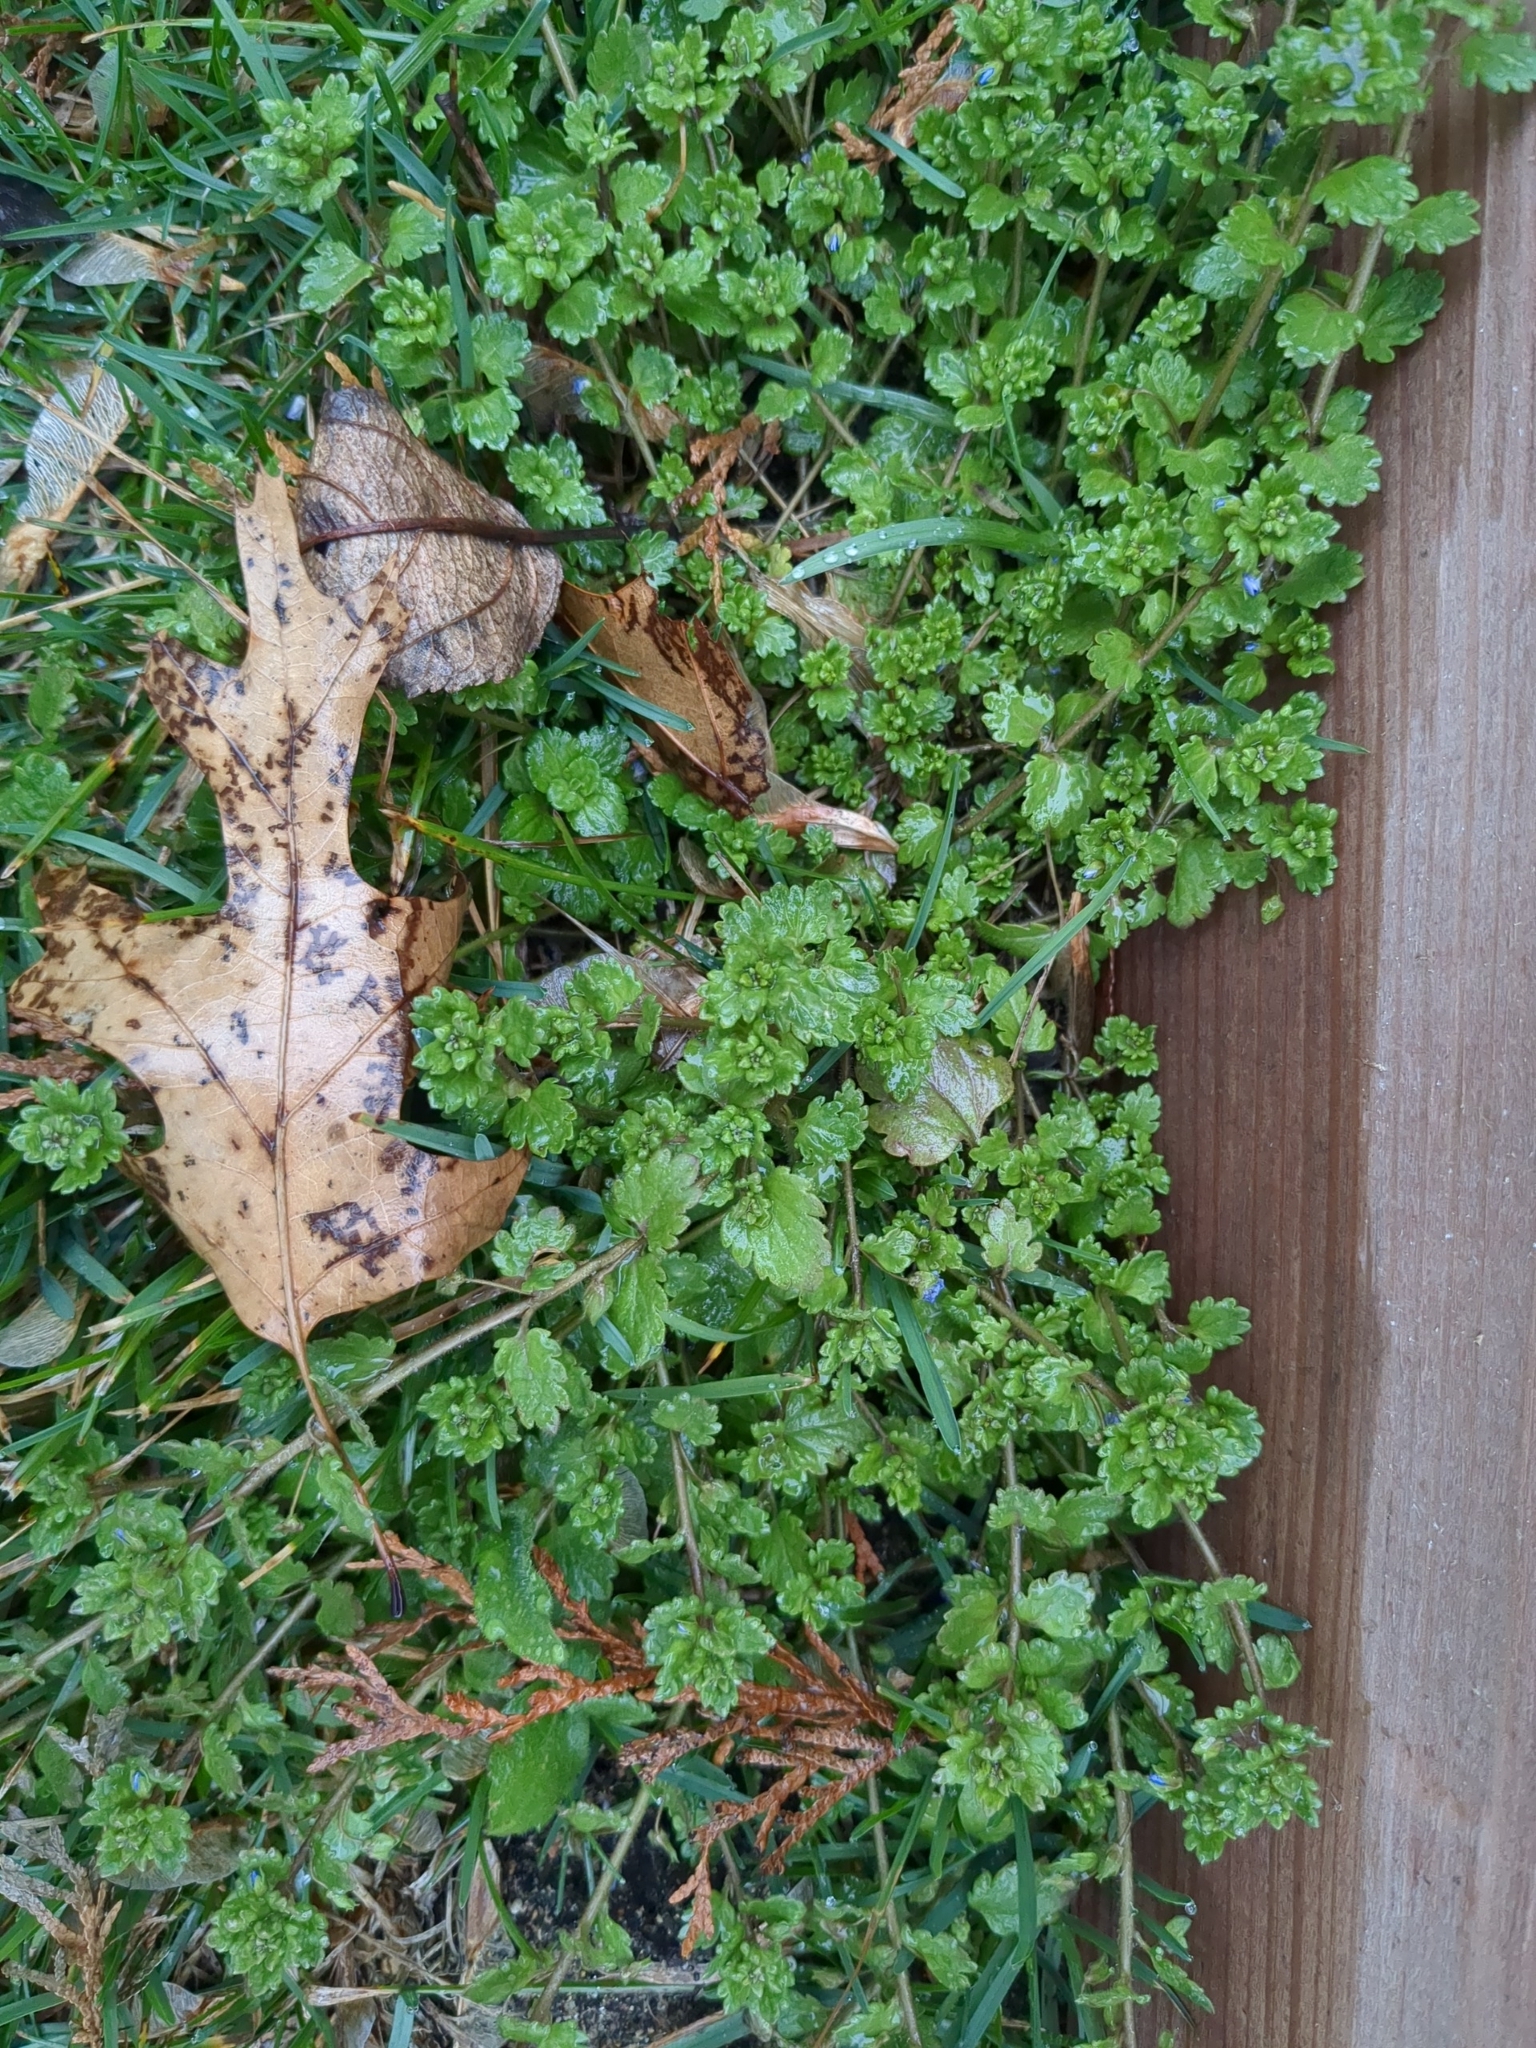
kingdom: Plantae
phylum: Tracheophyta
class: Magnoliopsida
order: Lamiales
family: Plantaginaceae
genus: Veronica
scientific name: Veronica polita
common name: Grey field-speedwell
